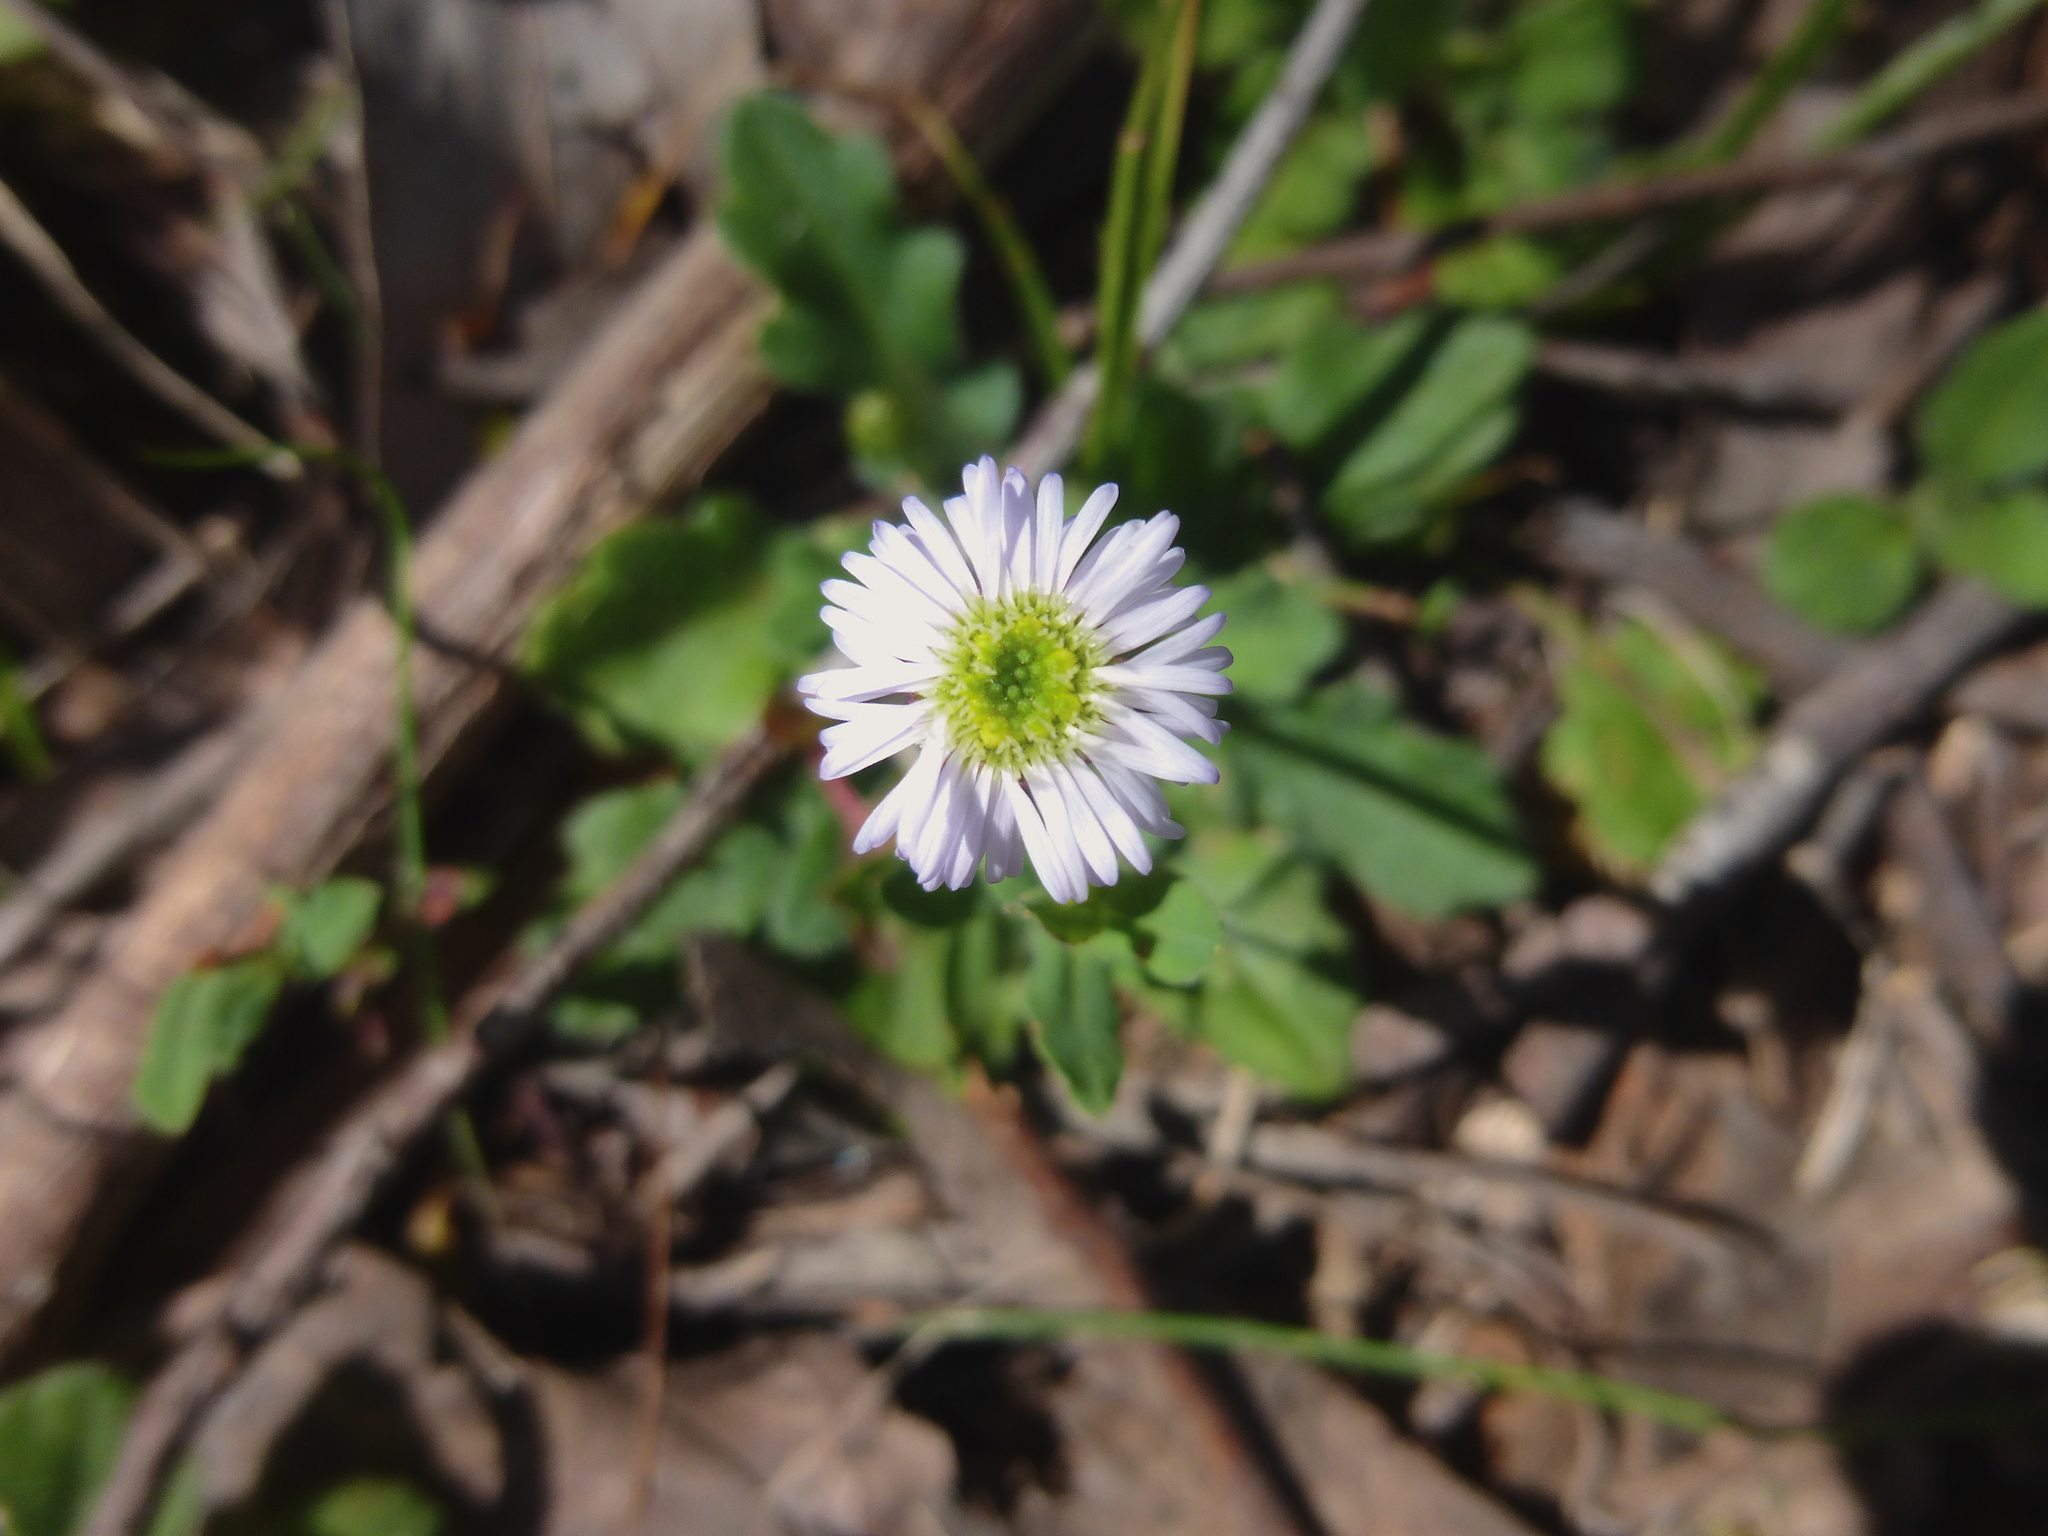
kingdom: Plantae
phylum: Tracheophyta
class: Magnoliopsida
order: Asterales
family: Asteraceae
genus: Lagenophora
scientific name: Lagenophora stipitata
